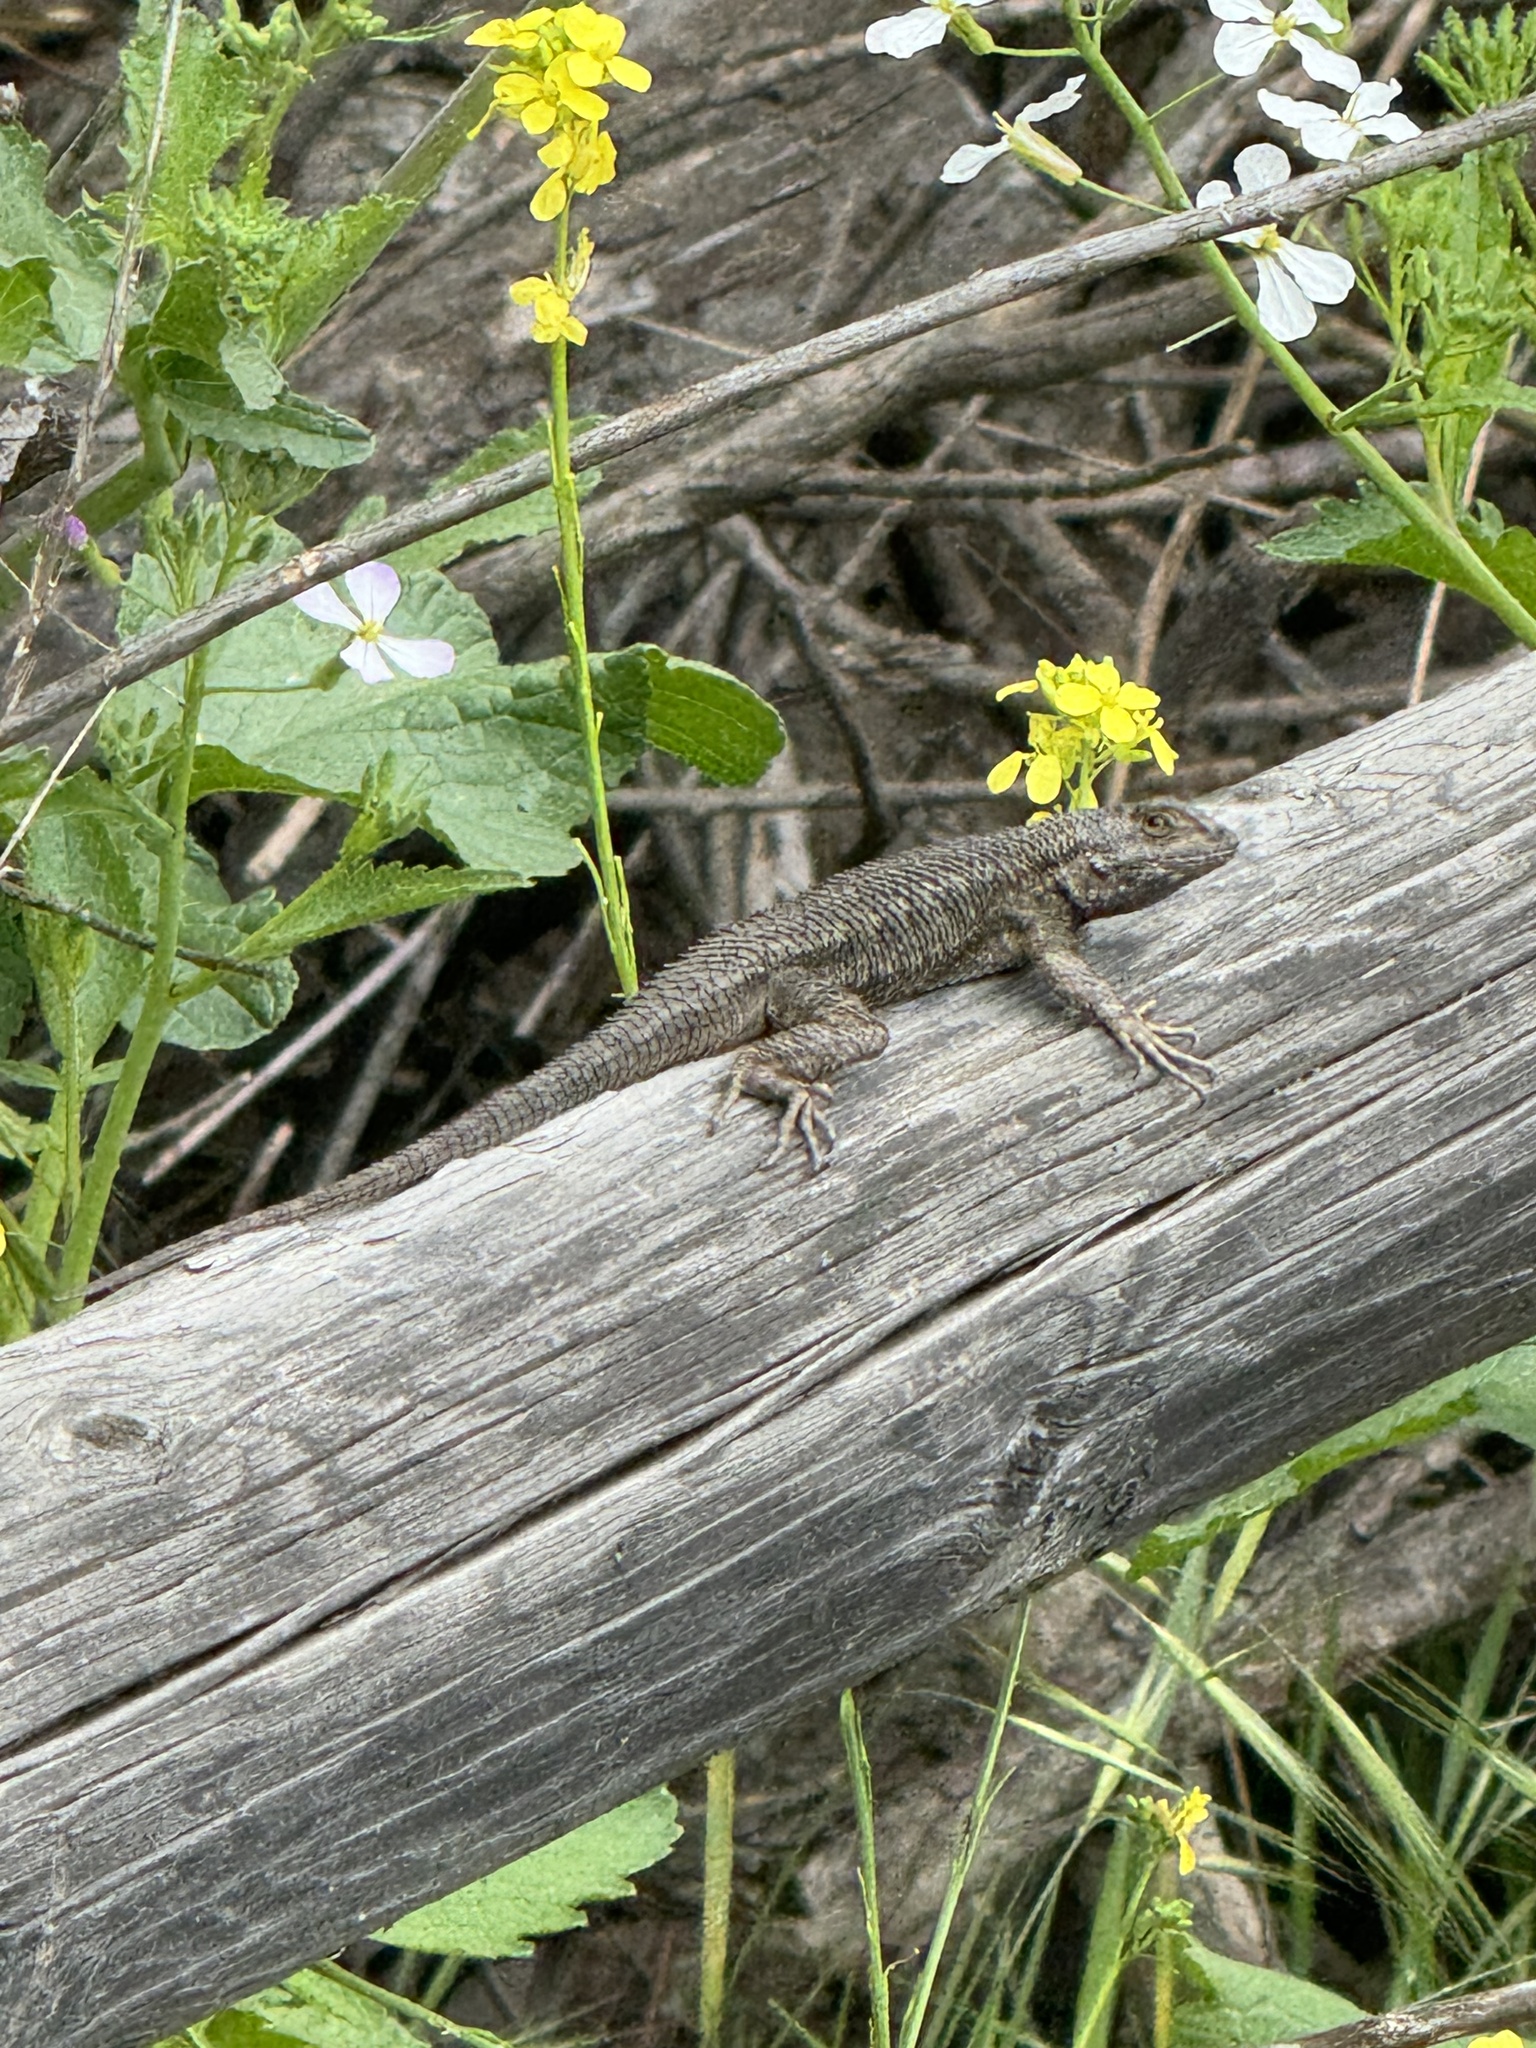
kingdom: Animalia
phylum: Chordata
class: Squamata
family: Phrynosomatidae
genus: Sceloporus
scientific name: Sceloporus occidentalis
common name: Western fence lizard
